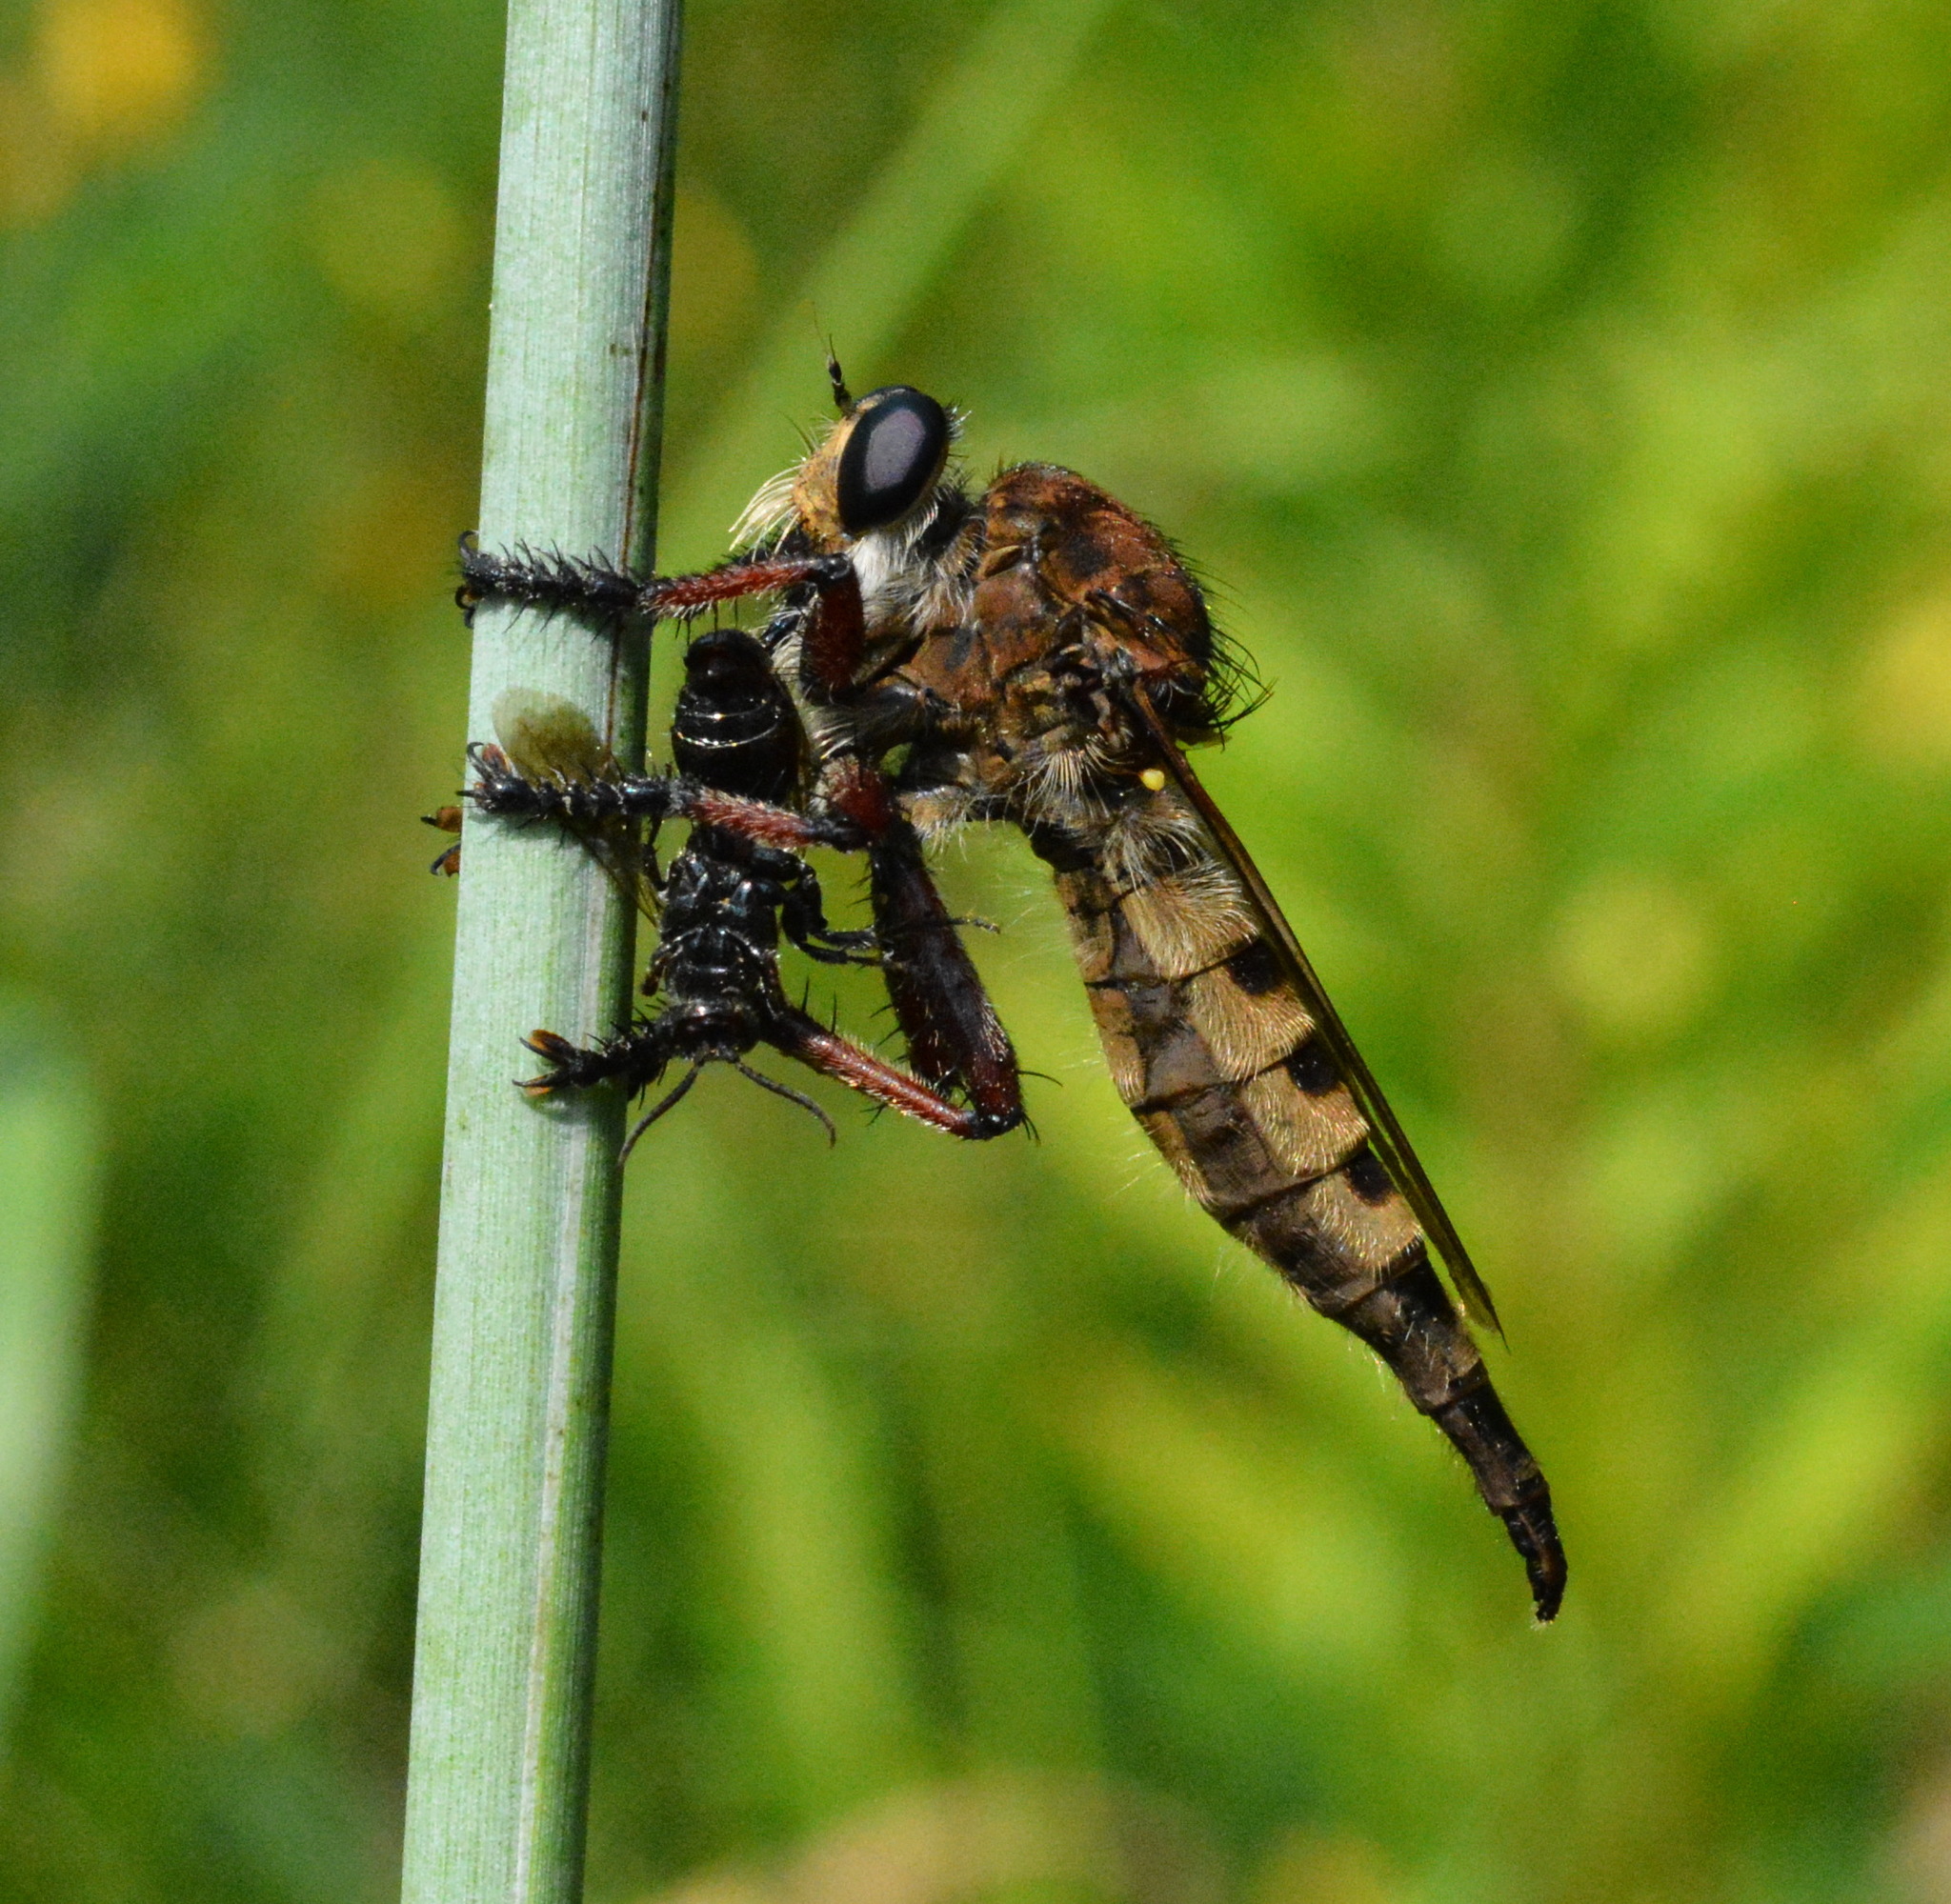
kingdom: Animalia
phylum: Arthropoda
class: Insecta
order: Diptera
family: Asilidae
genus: Promachus
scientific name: Promachus hinei
